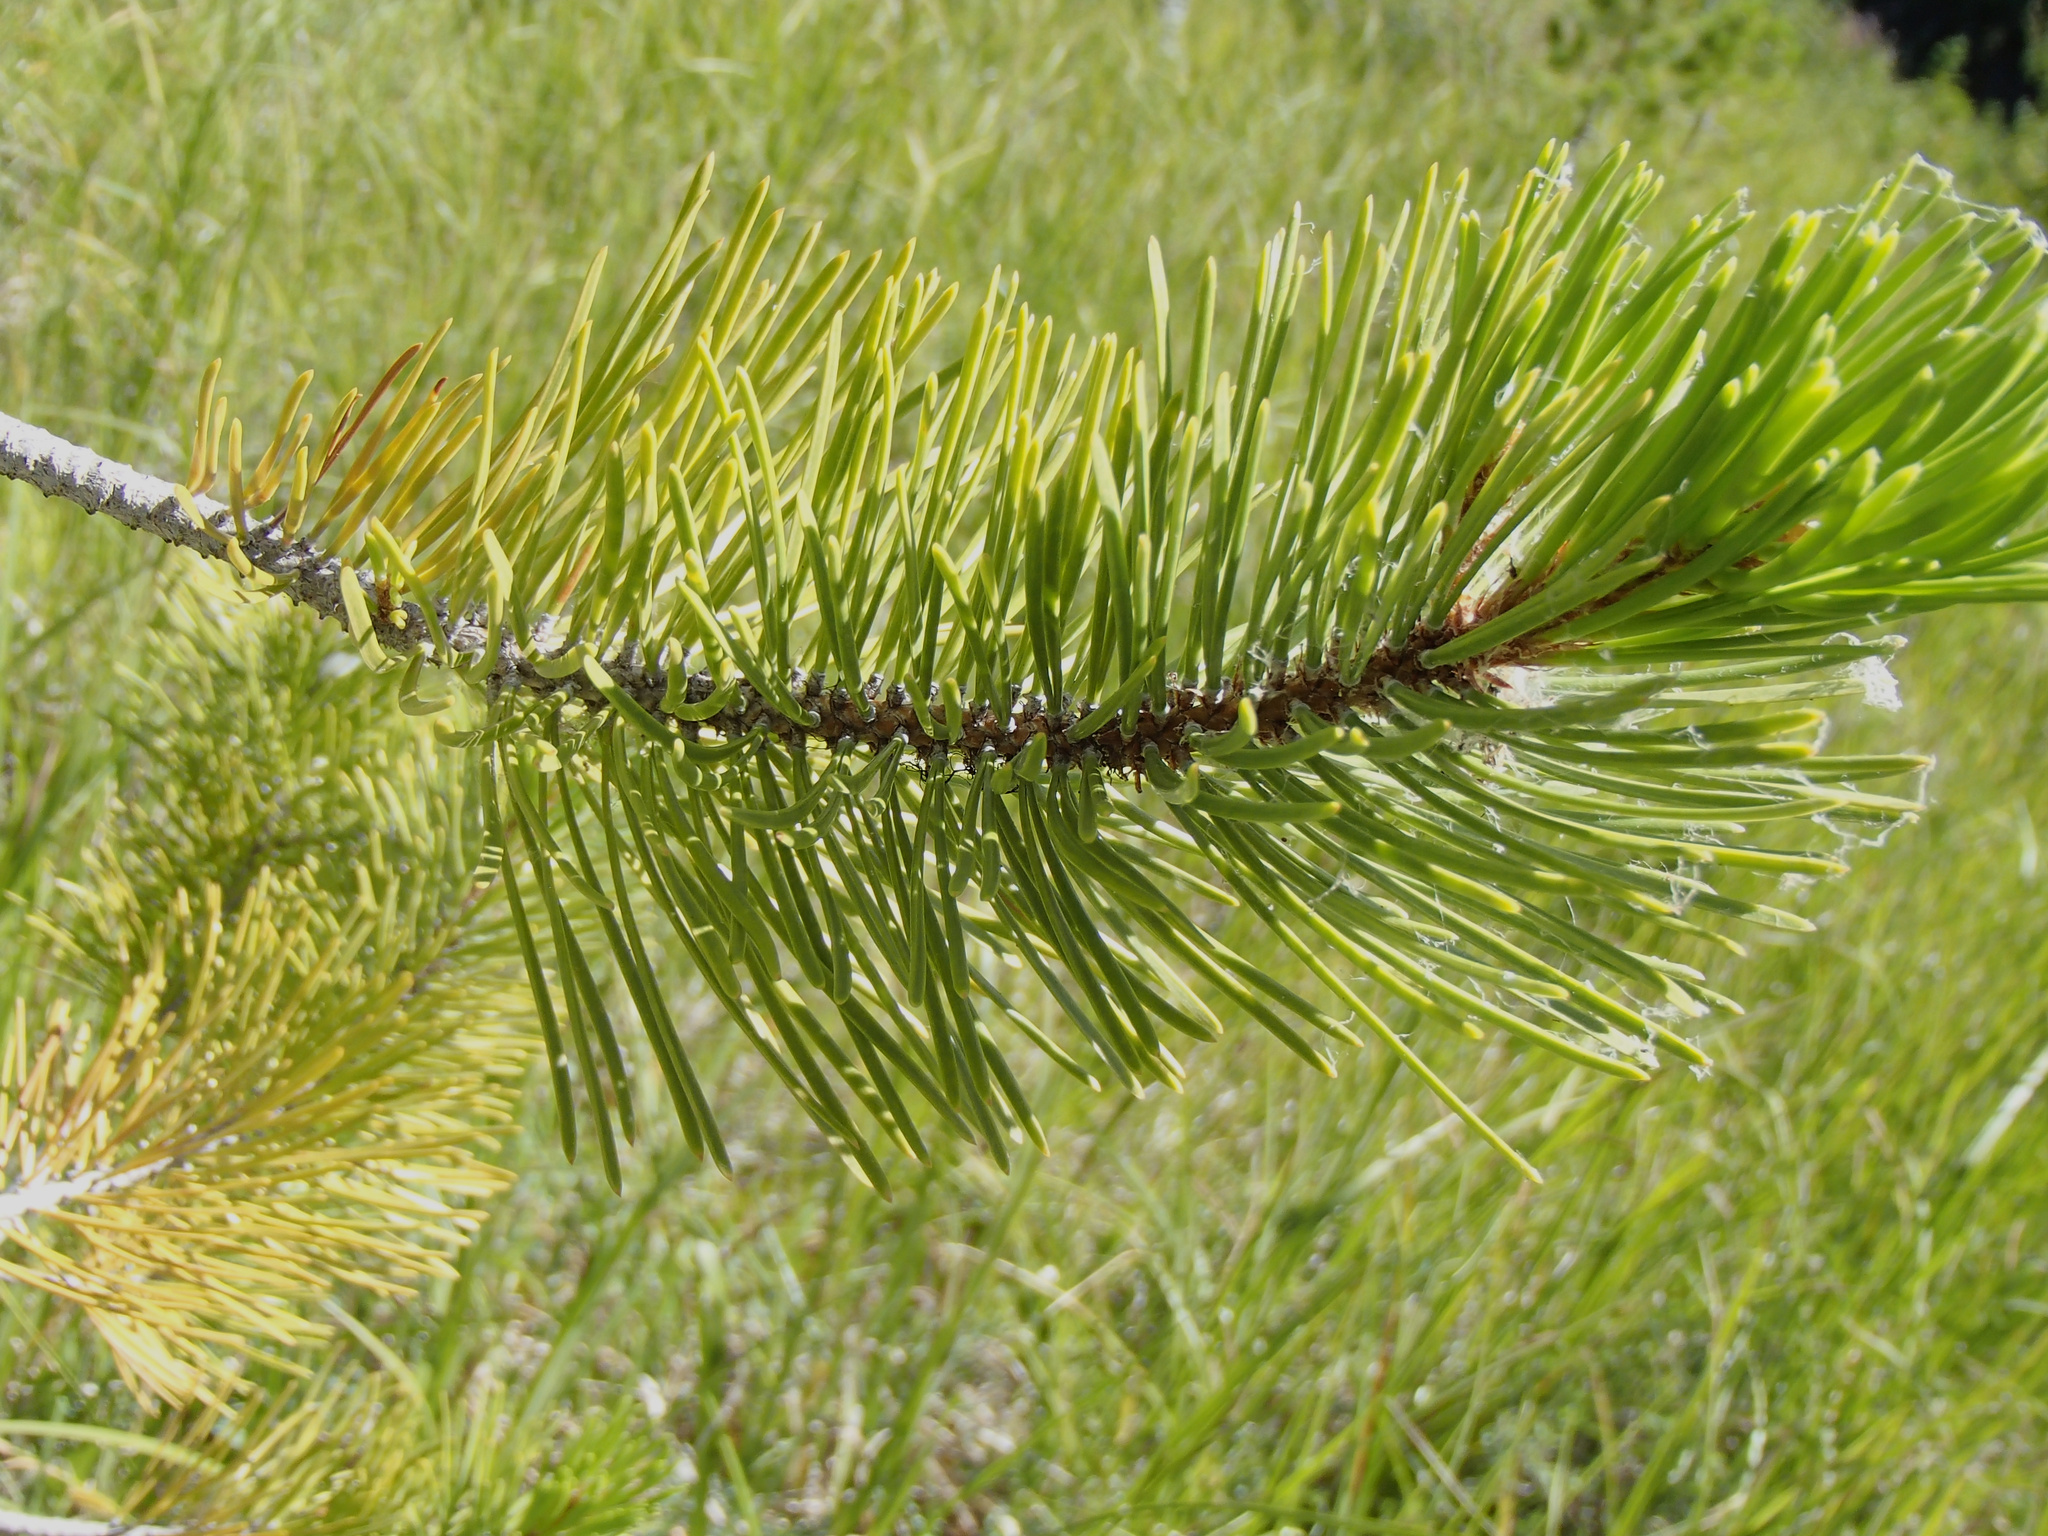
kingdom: Plantae
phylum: Tracheophyta
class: Pinopsida
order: Pinales
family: Pinaceae
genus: Pinus
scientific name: Pinus contorta
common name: Lodgepole pine
